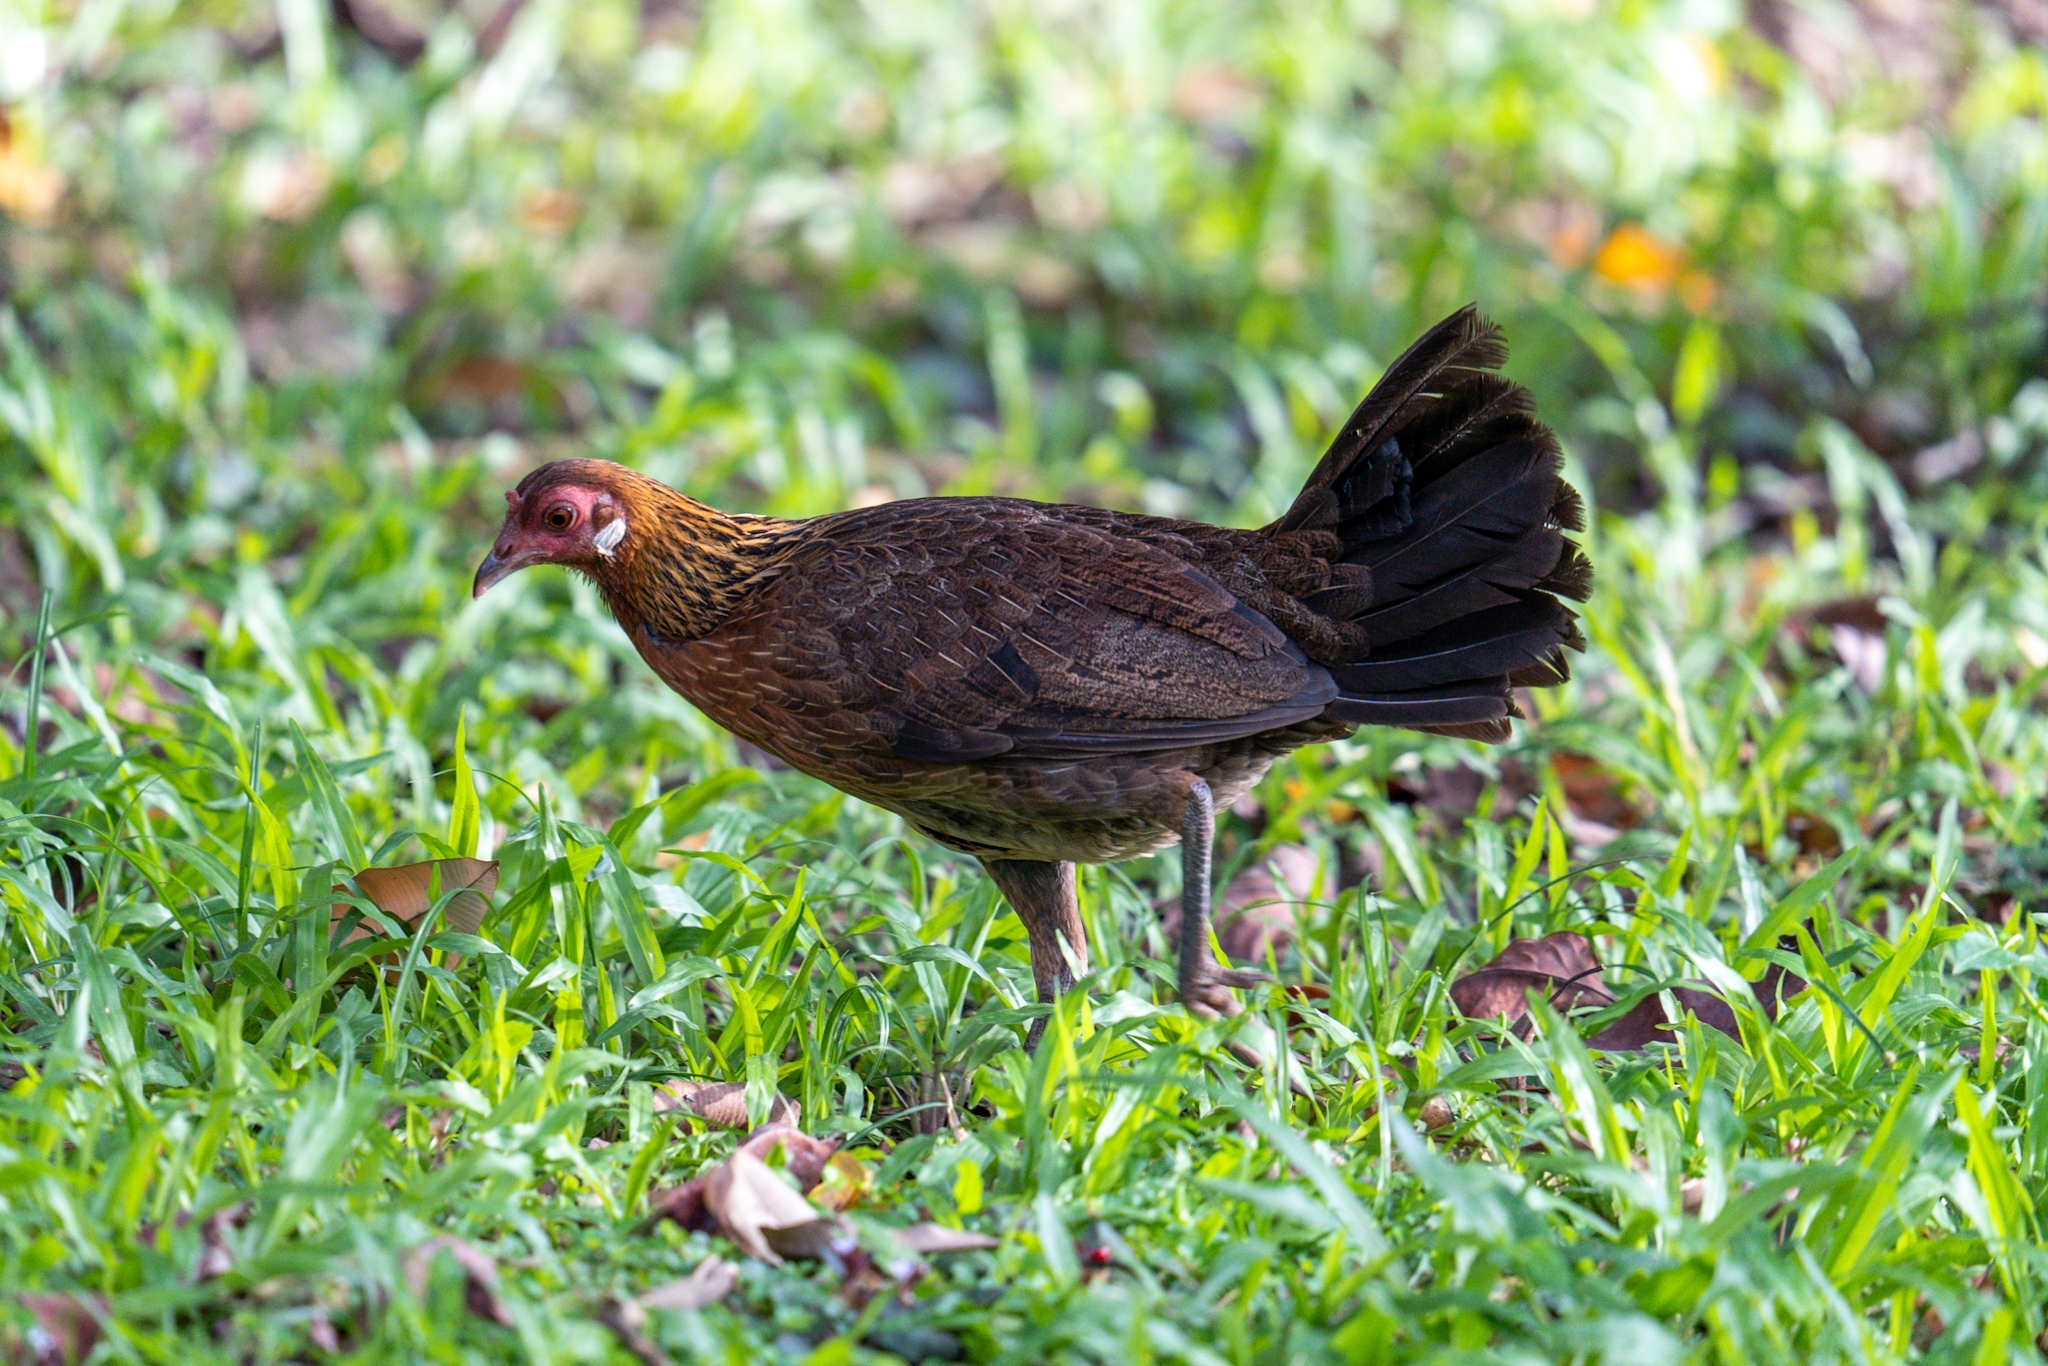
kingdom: Animalia
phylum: Chordata
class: Aves
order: Galliformes
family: Phasianidae
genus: Gallus
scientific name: Gallus gallus
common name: Red junglefowl
